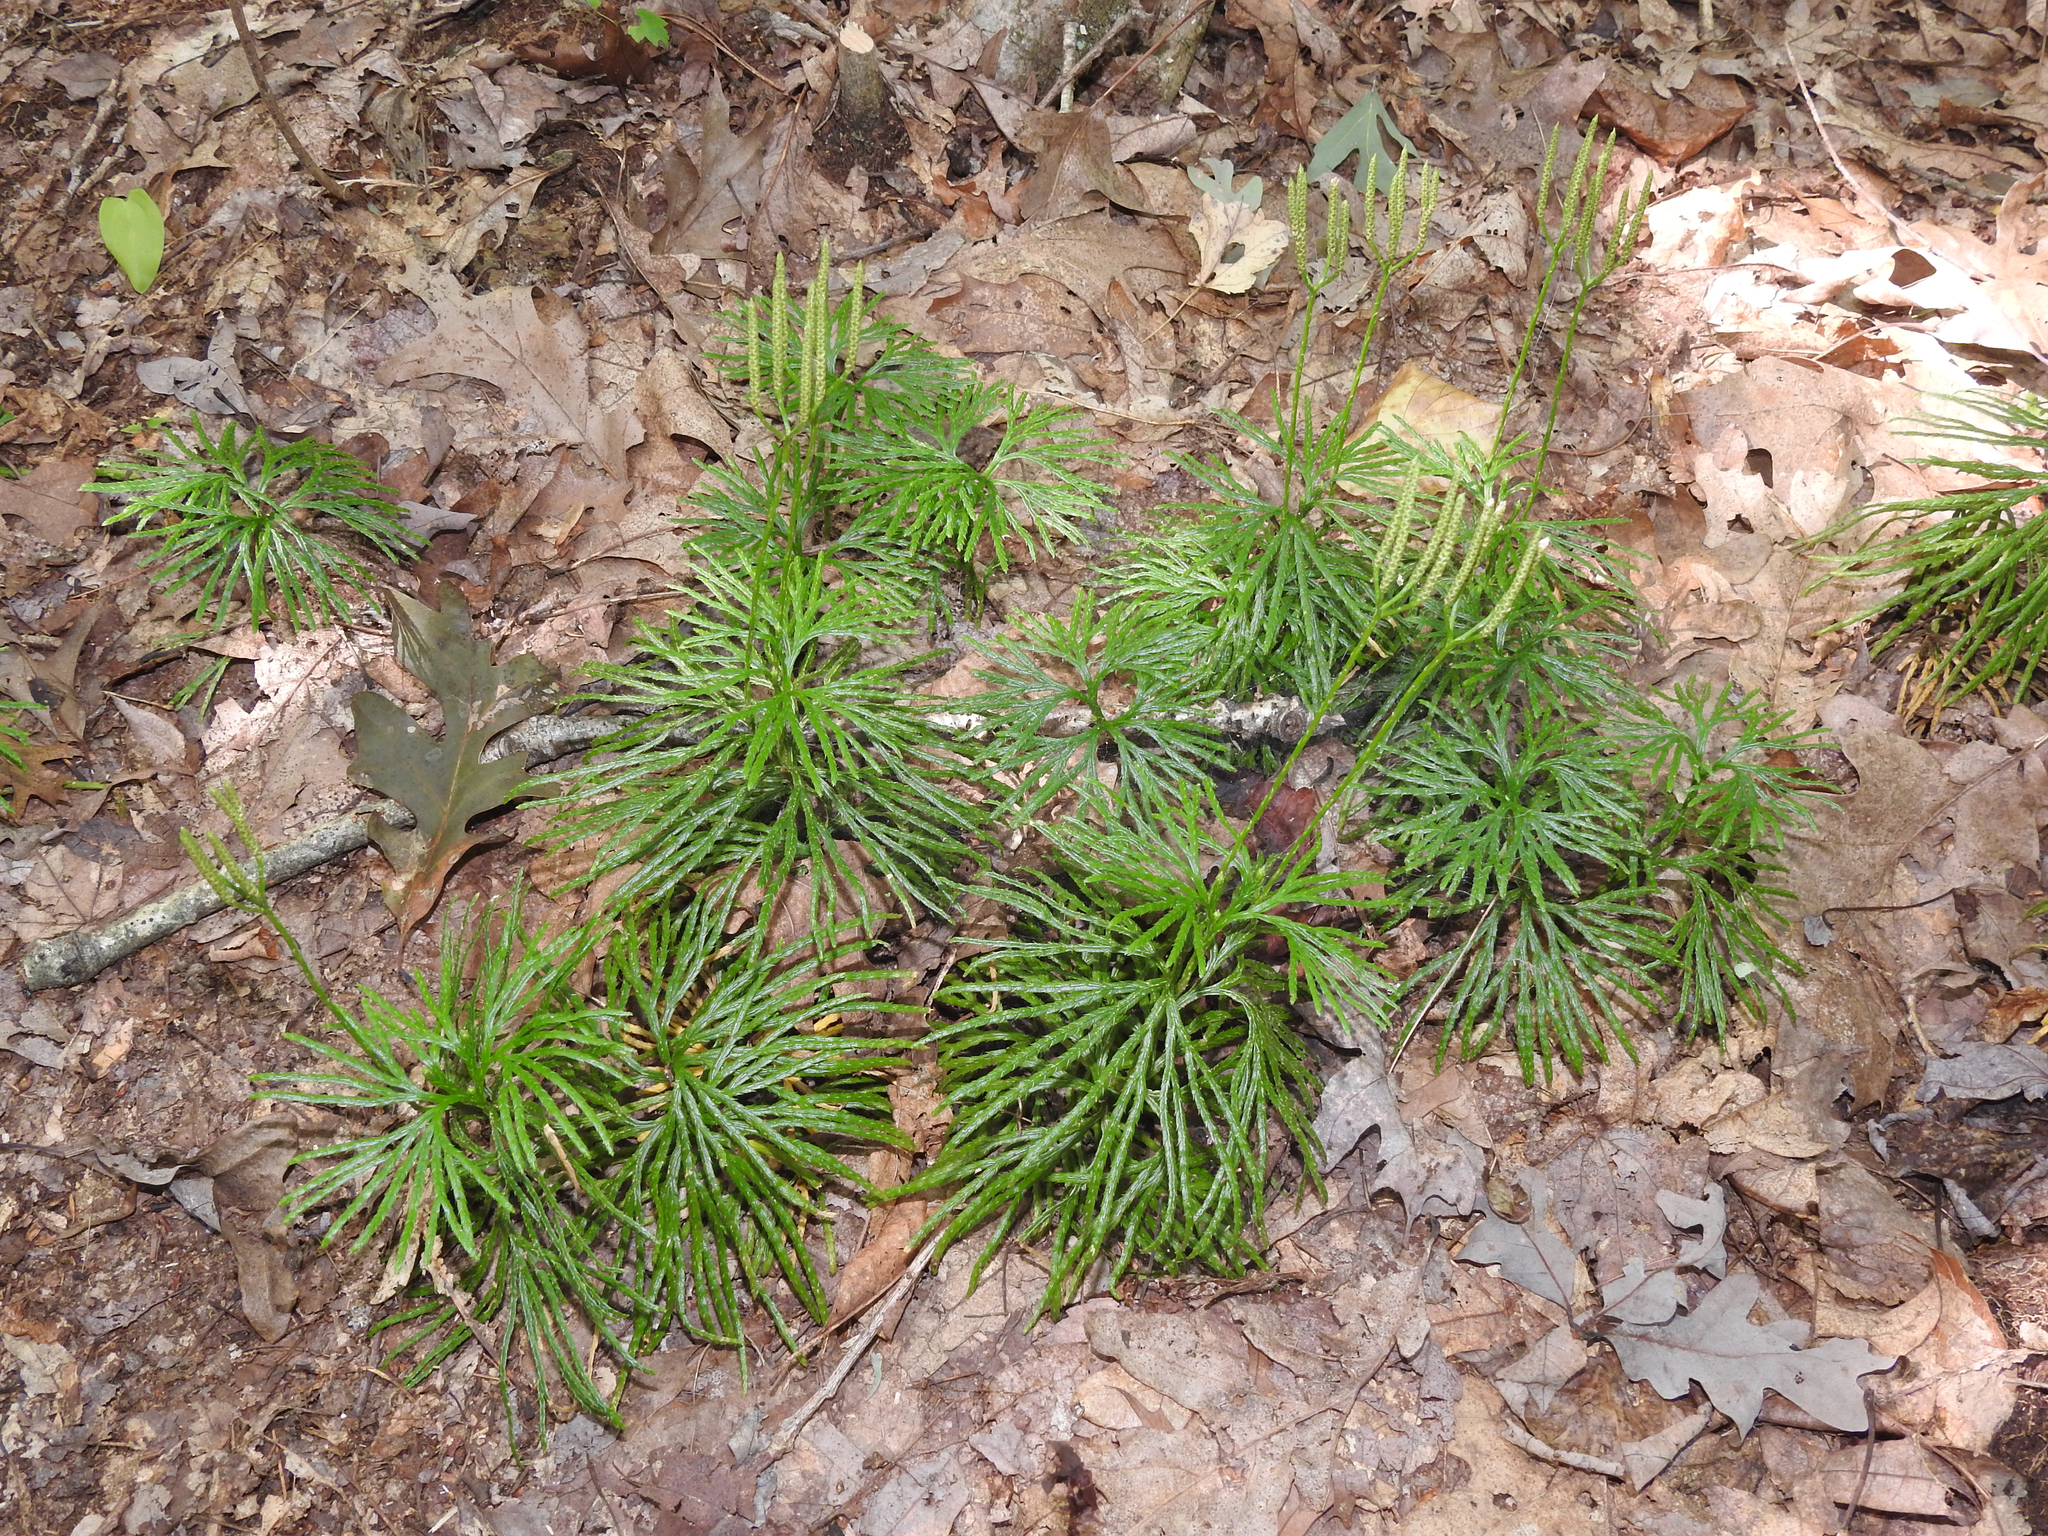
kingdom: Plantae
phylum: Tracheophyta
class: Lycopodiopsida
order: Lycopodiales
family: Lycopodiaceae
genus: Diphasiastrum
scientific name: Diphasiastrum digitatum
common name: Southern running-pine
